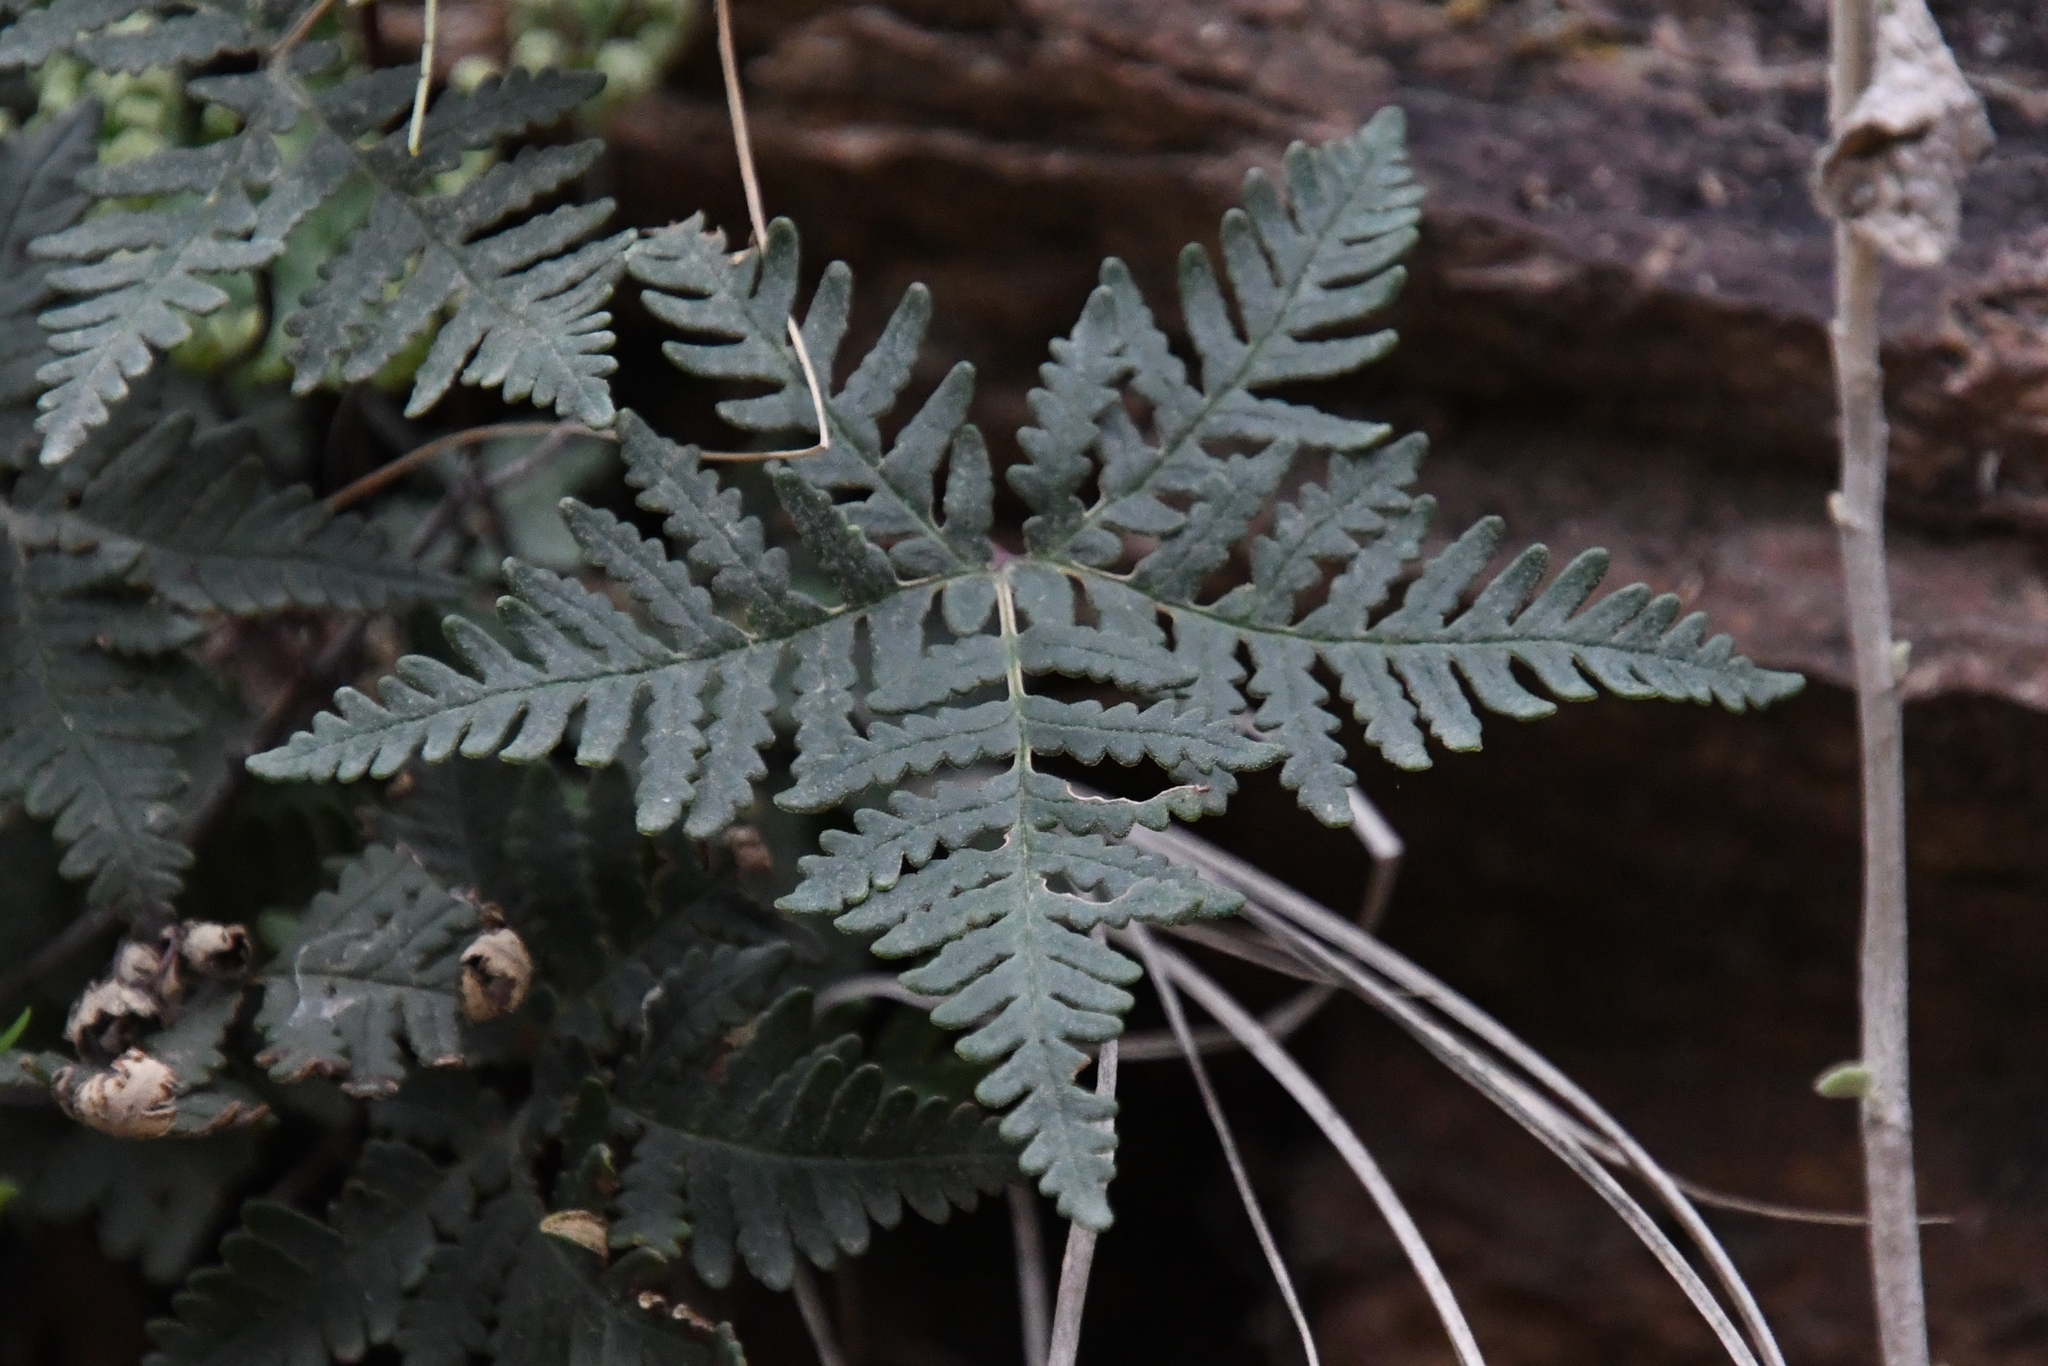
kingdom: Plantae
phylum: Tracheophyta
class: Polypodiopsida
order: Polypodiales
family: Pteridaceae
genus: Notholaena
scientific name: Notholaena standleyi
